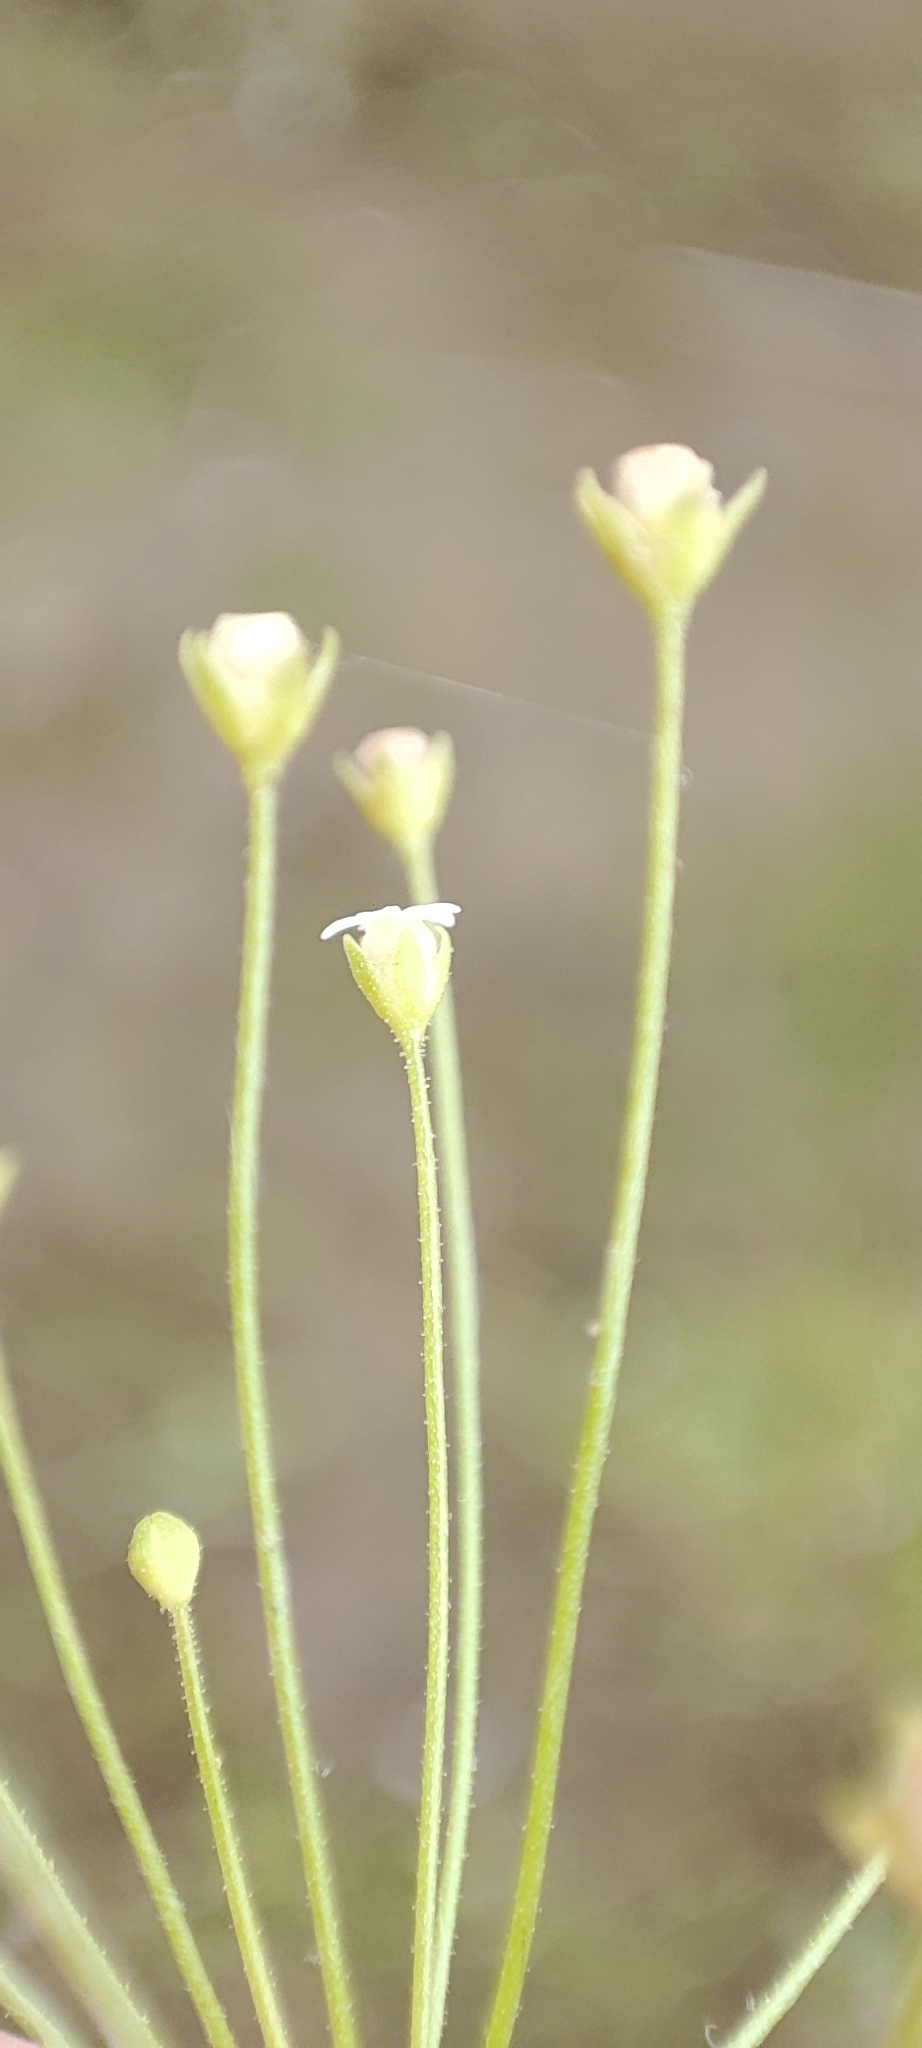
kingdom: Plantae
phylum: Tracheophyta
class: Magnoliopsida
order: Ericales
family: Primulaceae
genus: Androsace
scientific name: Androsace filiformis
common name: Filiform rock jasmine
